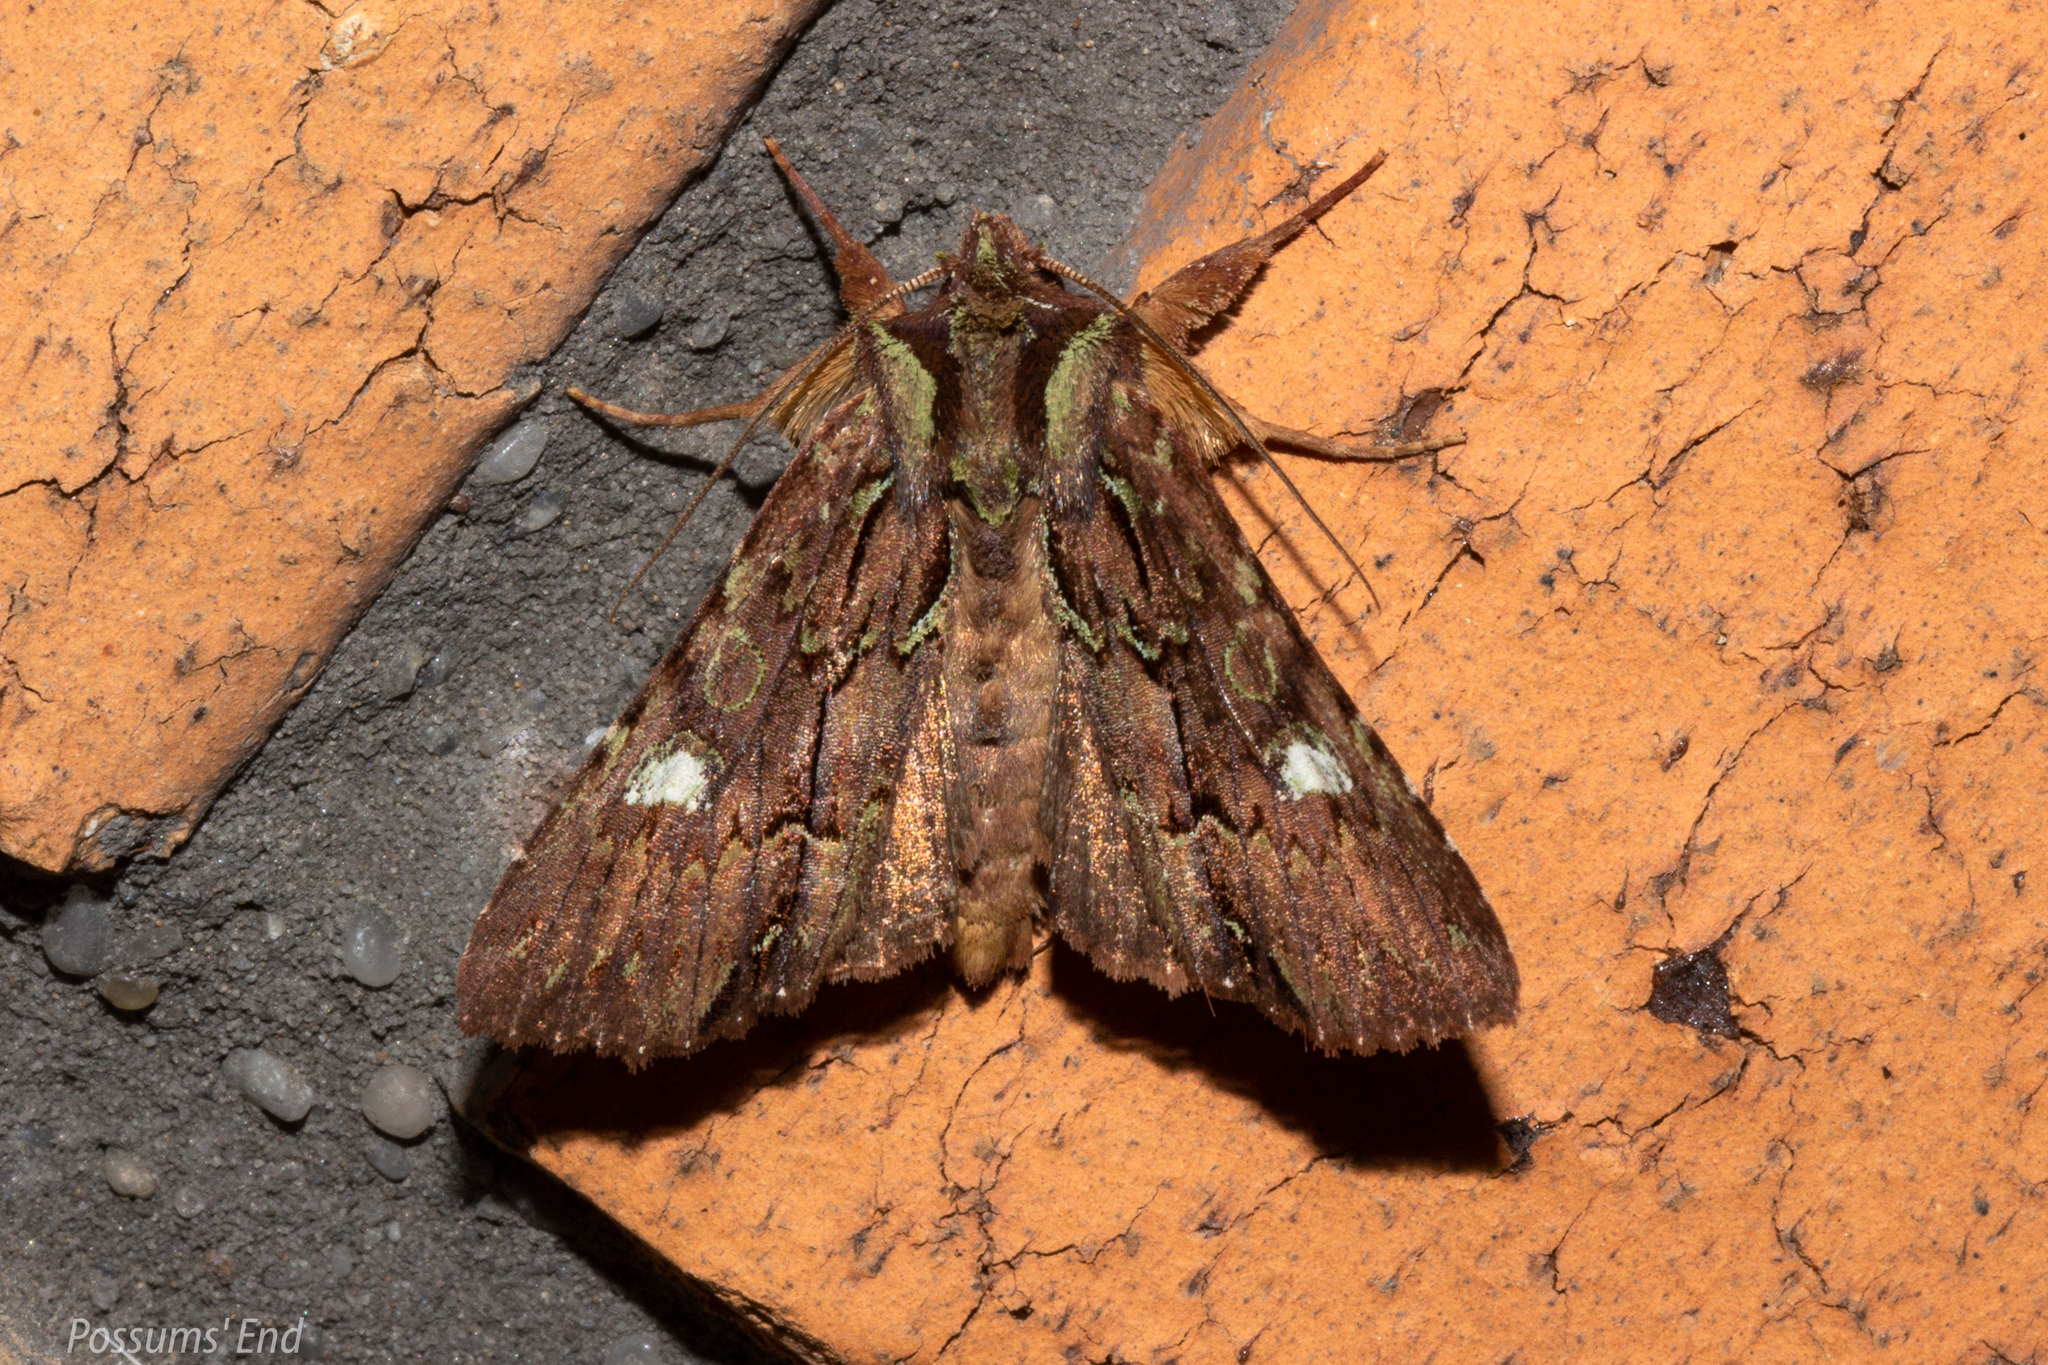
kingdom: Animalia
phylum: Arthropoda
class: Insecta
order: Lepidoptera
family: Noctuidae
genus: Meterana
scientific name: Meterana diatmeta
